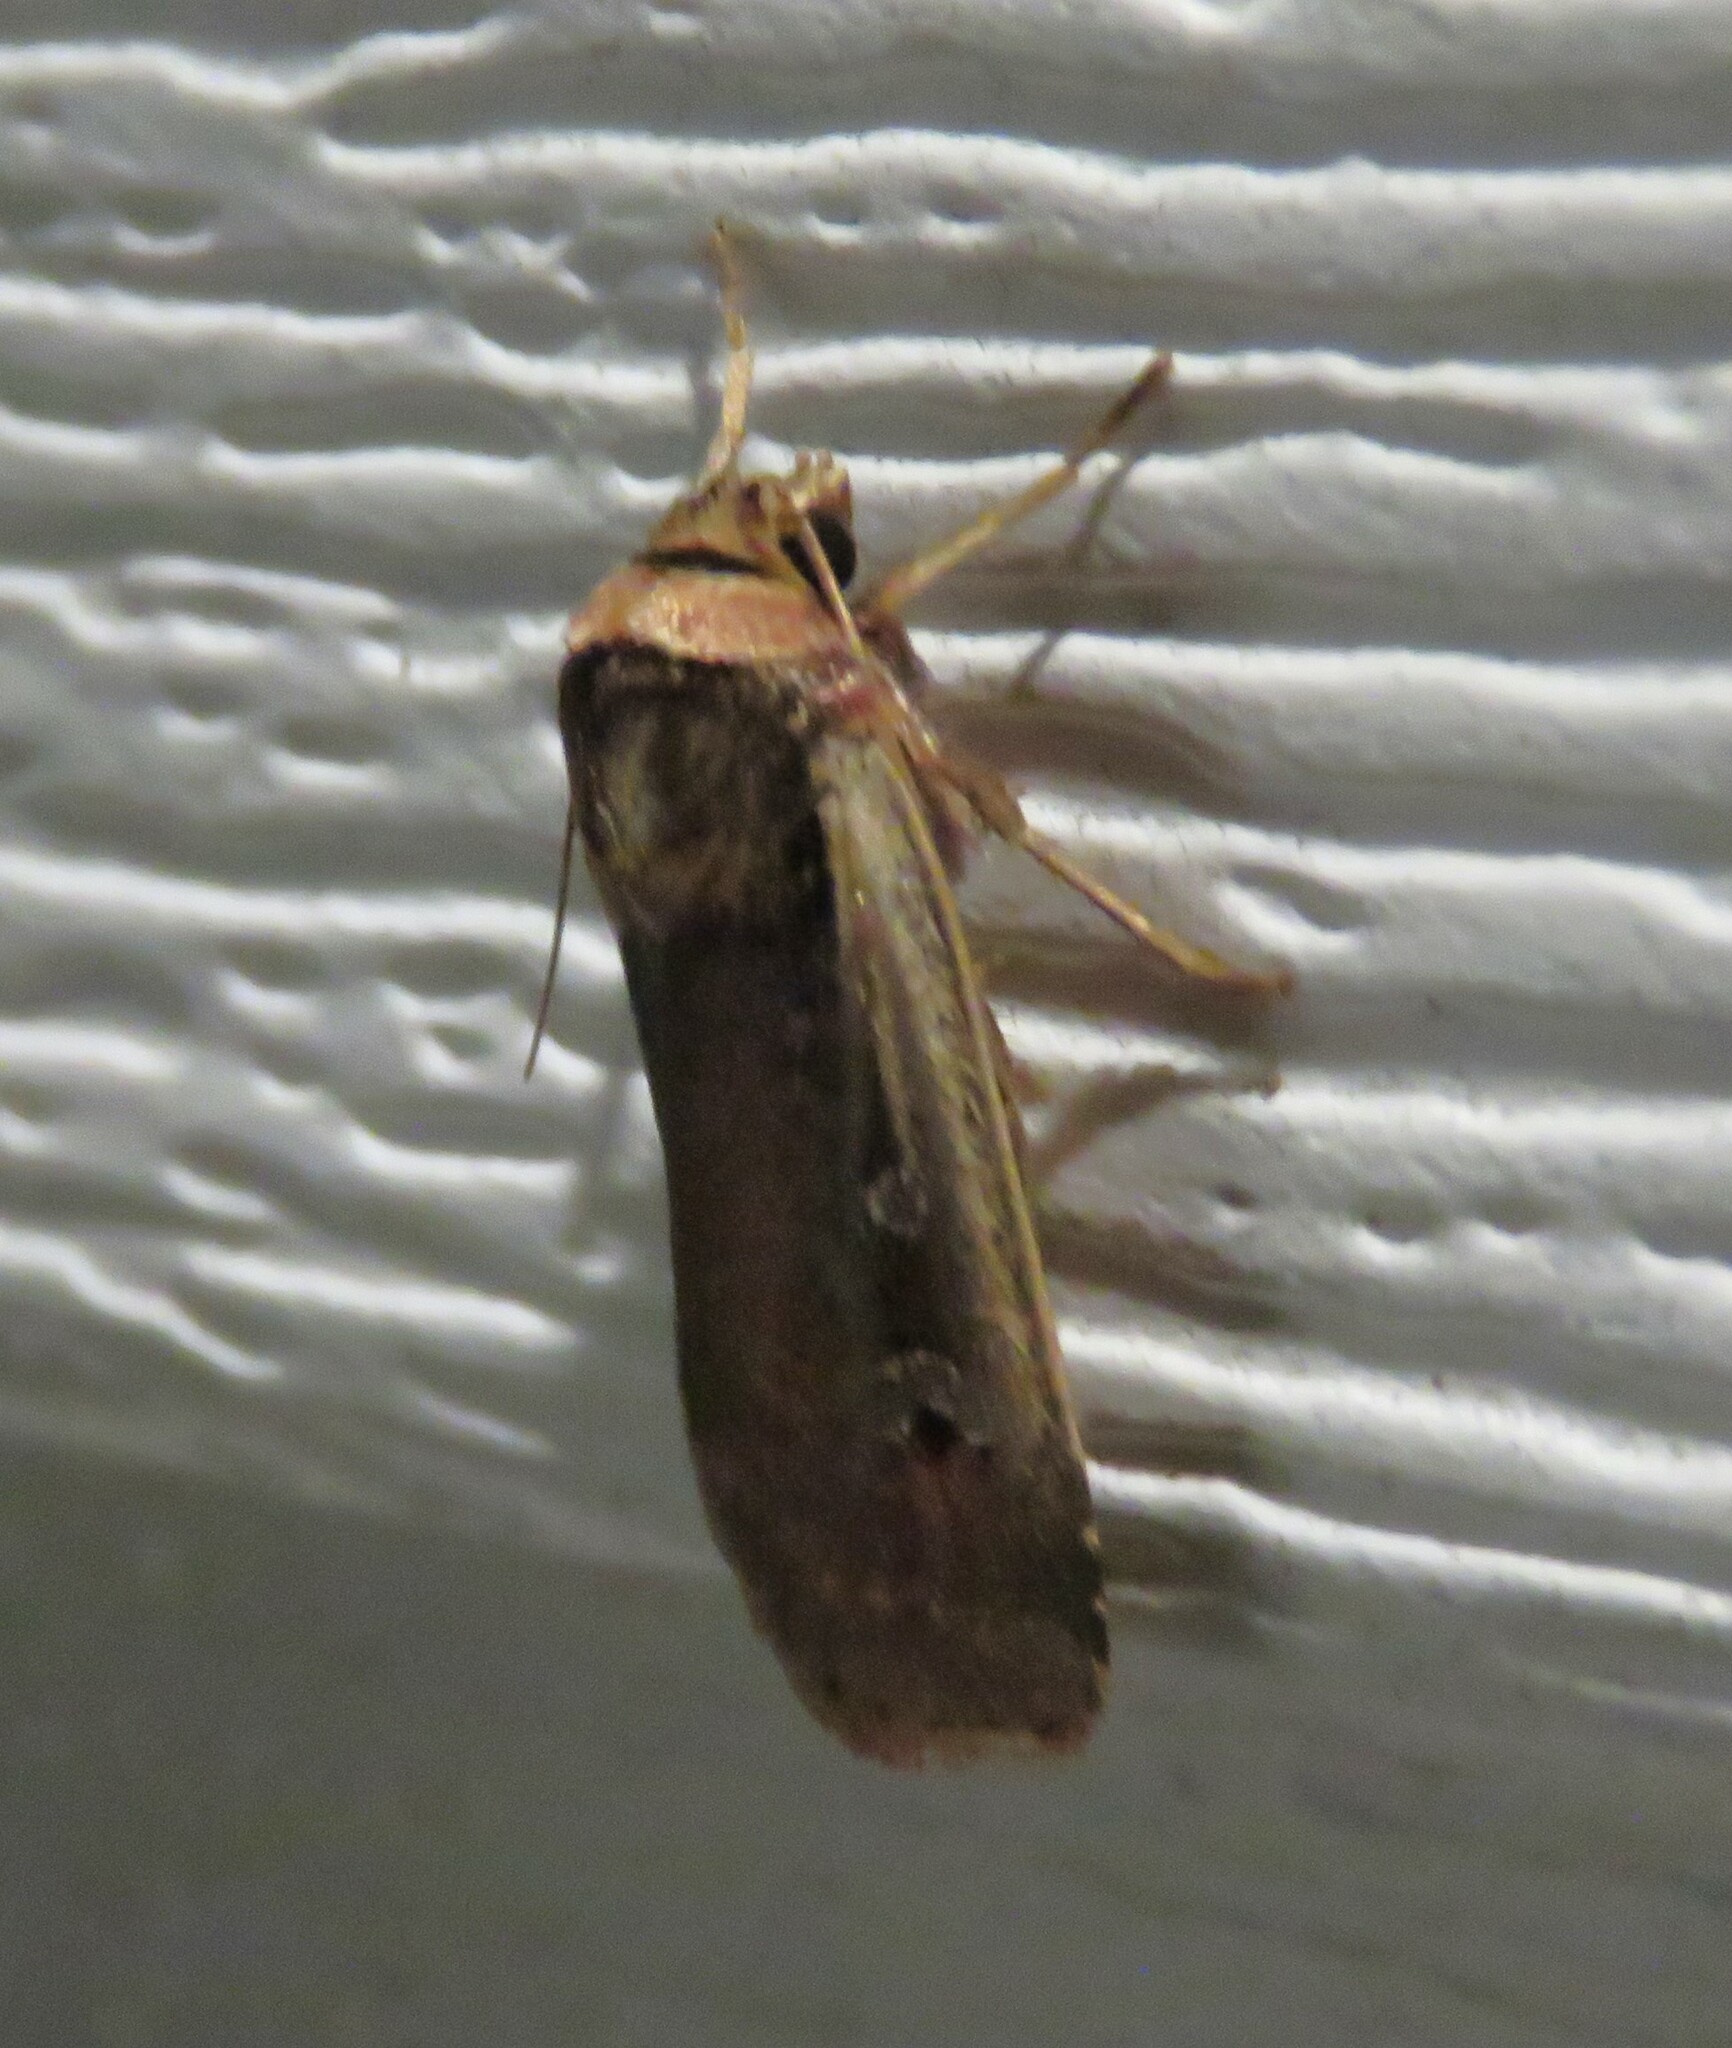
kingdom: Animalia
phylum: Arthropoda
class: Insecta
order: Lepidoptera
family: Noctuidae
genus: Ochropleura
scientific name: Ochropleura implecta
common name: Flame-shouldered dart
